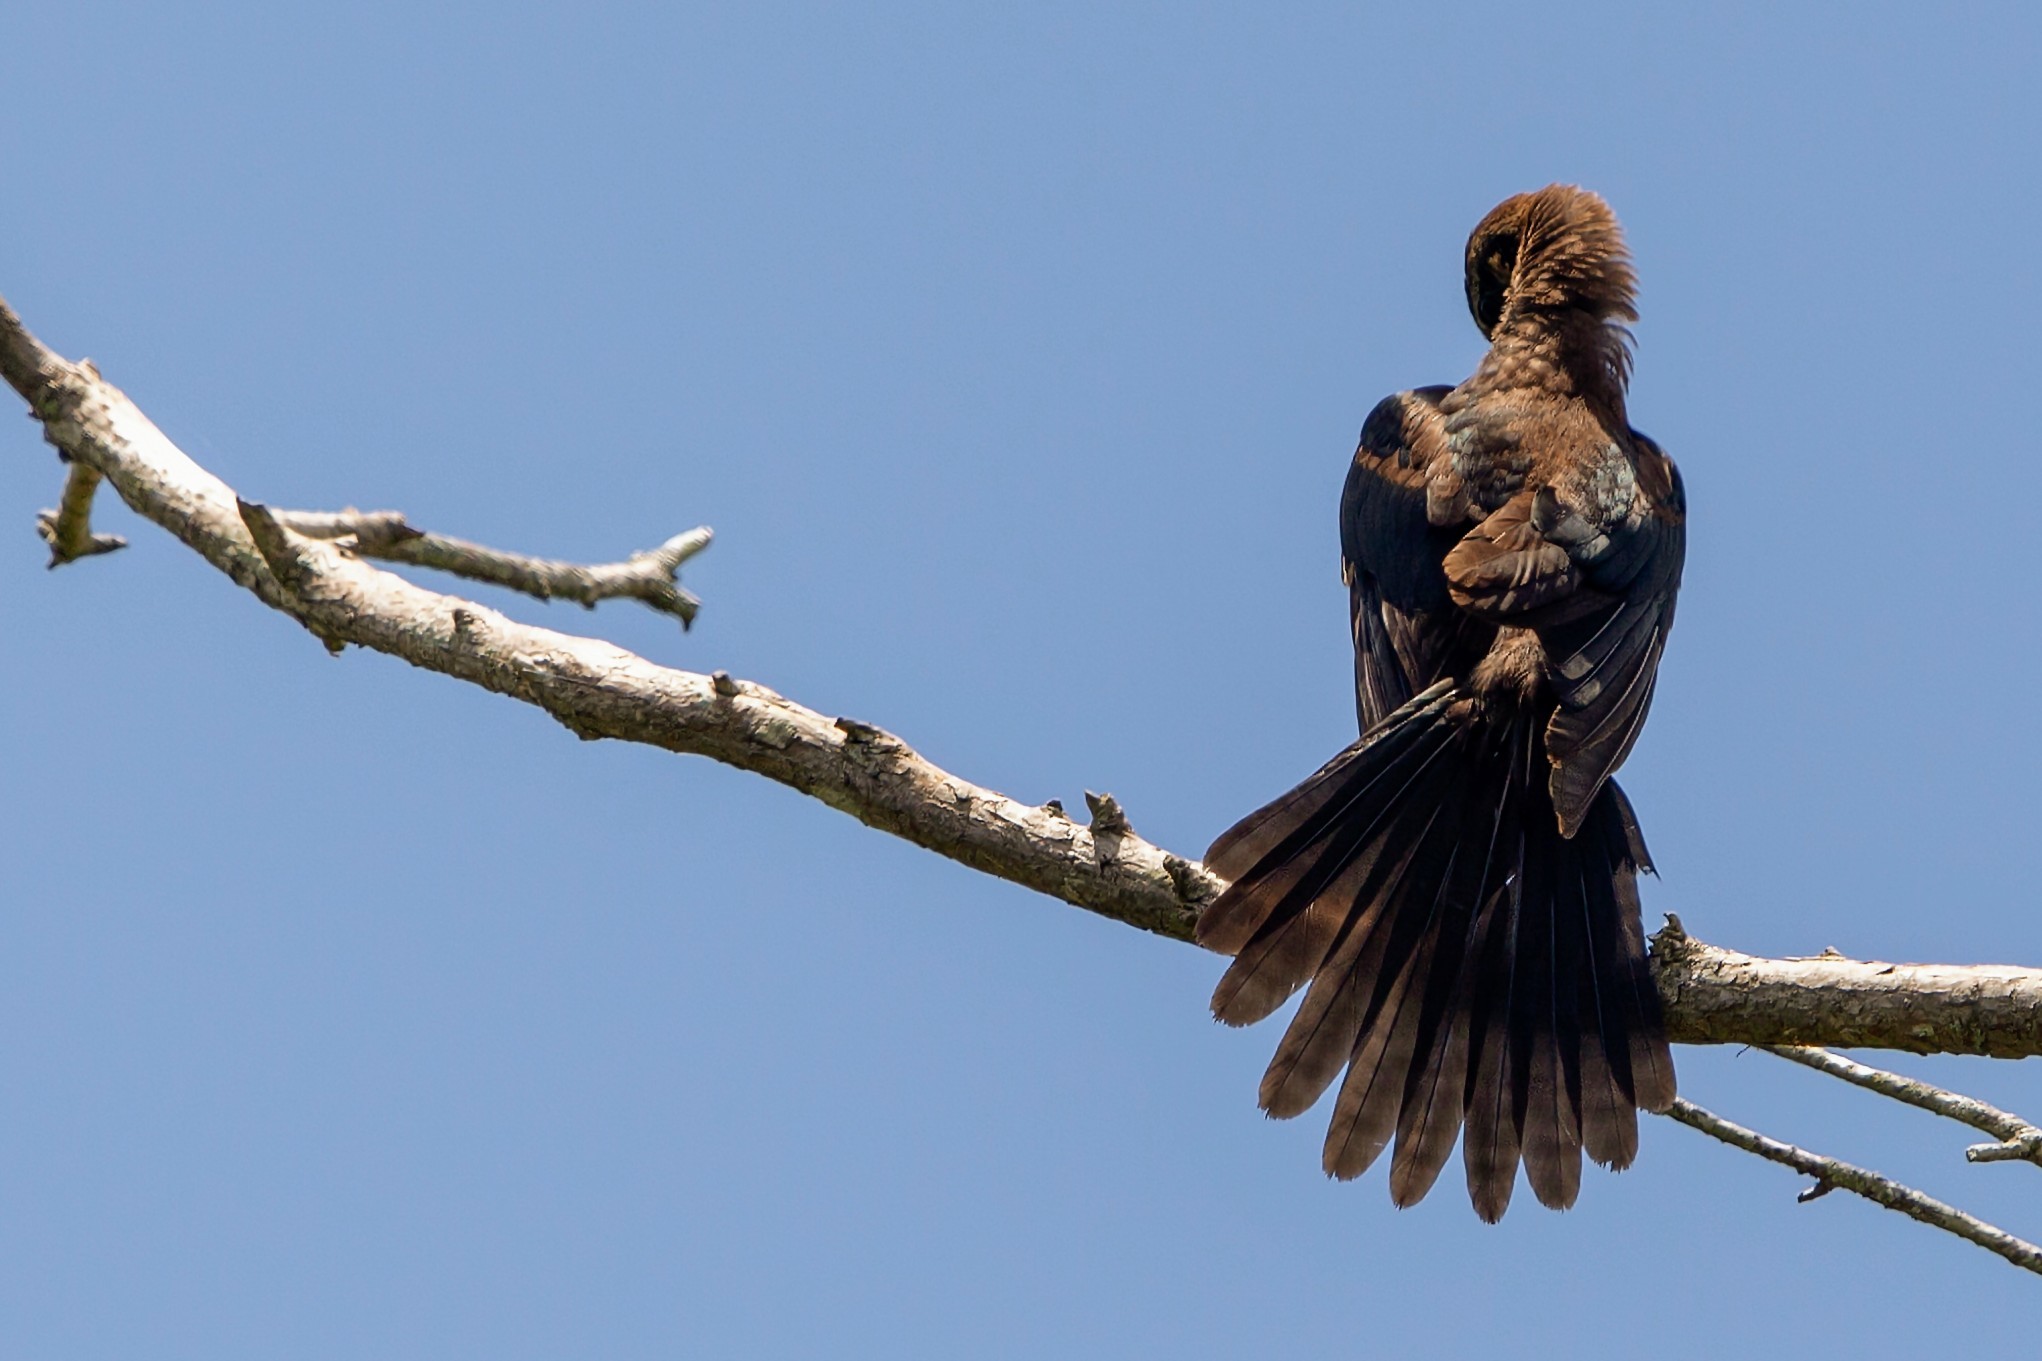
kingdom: Animalia
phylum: Chordata
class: Aves
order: Passeriformes
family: Icteridae
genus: Quiscalus
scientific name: Quiscalus major
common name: Boat-tailed grackle
